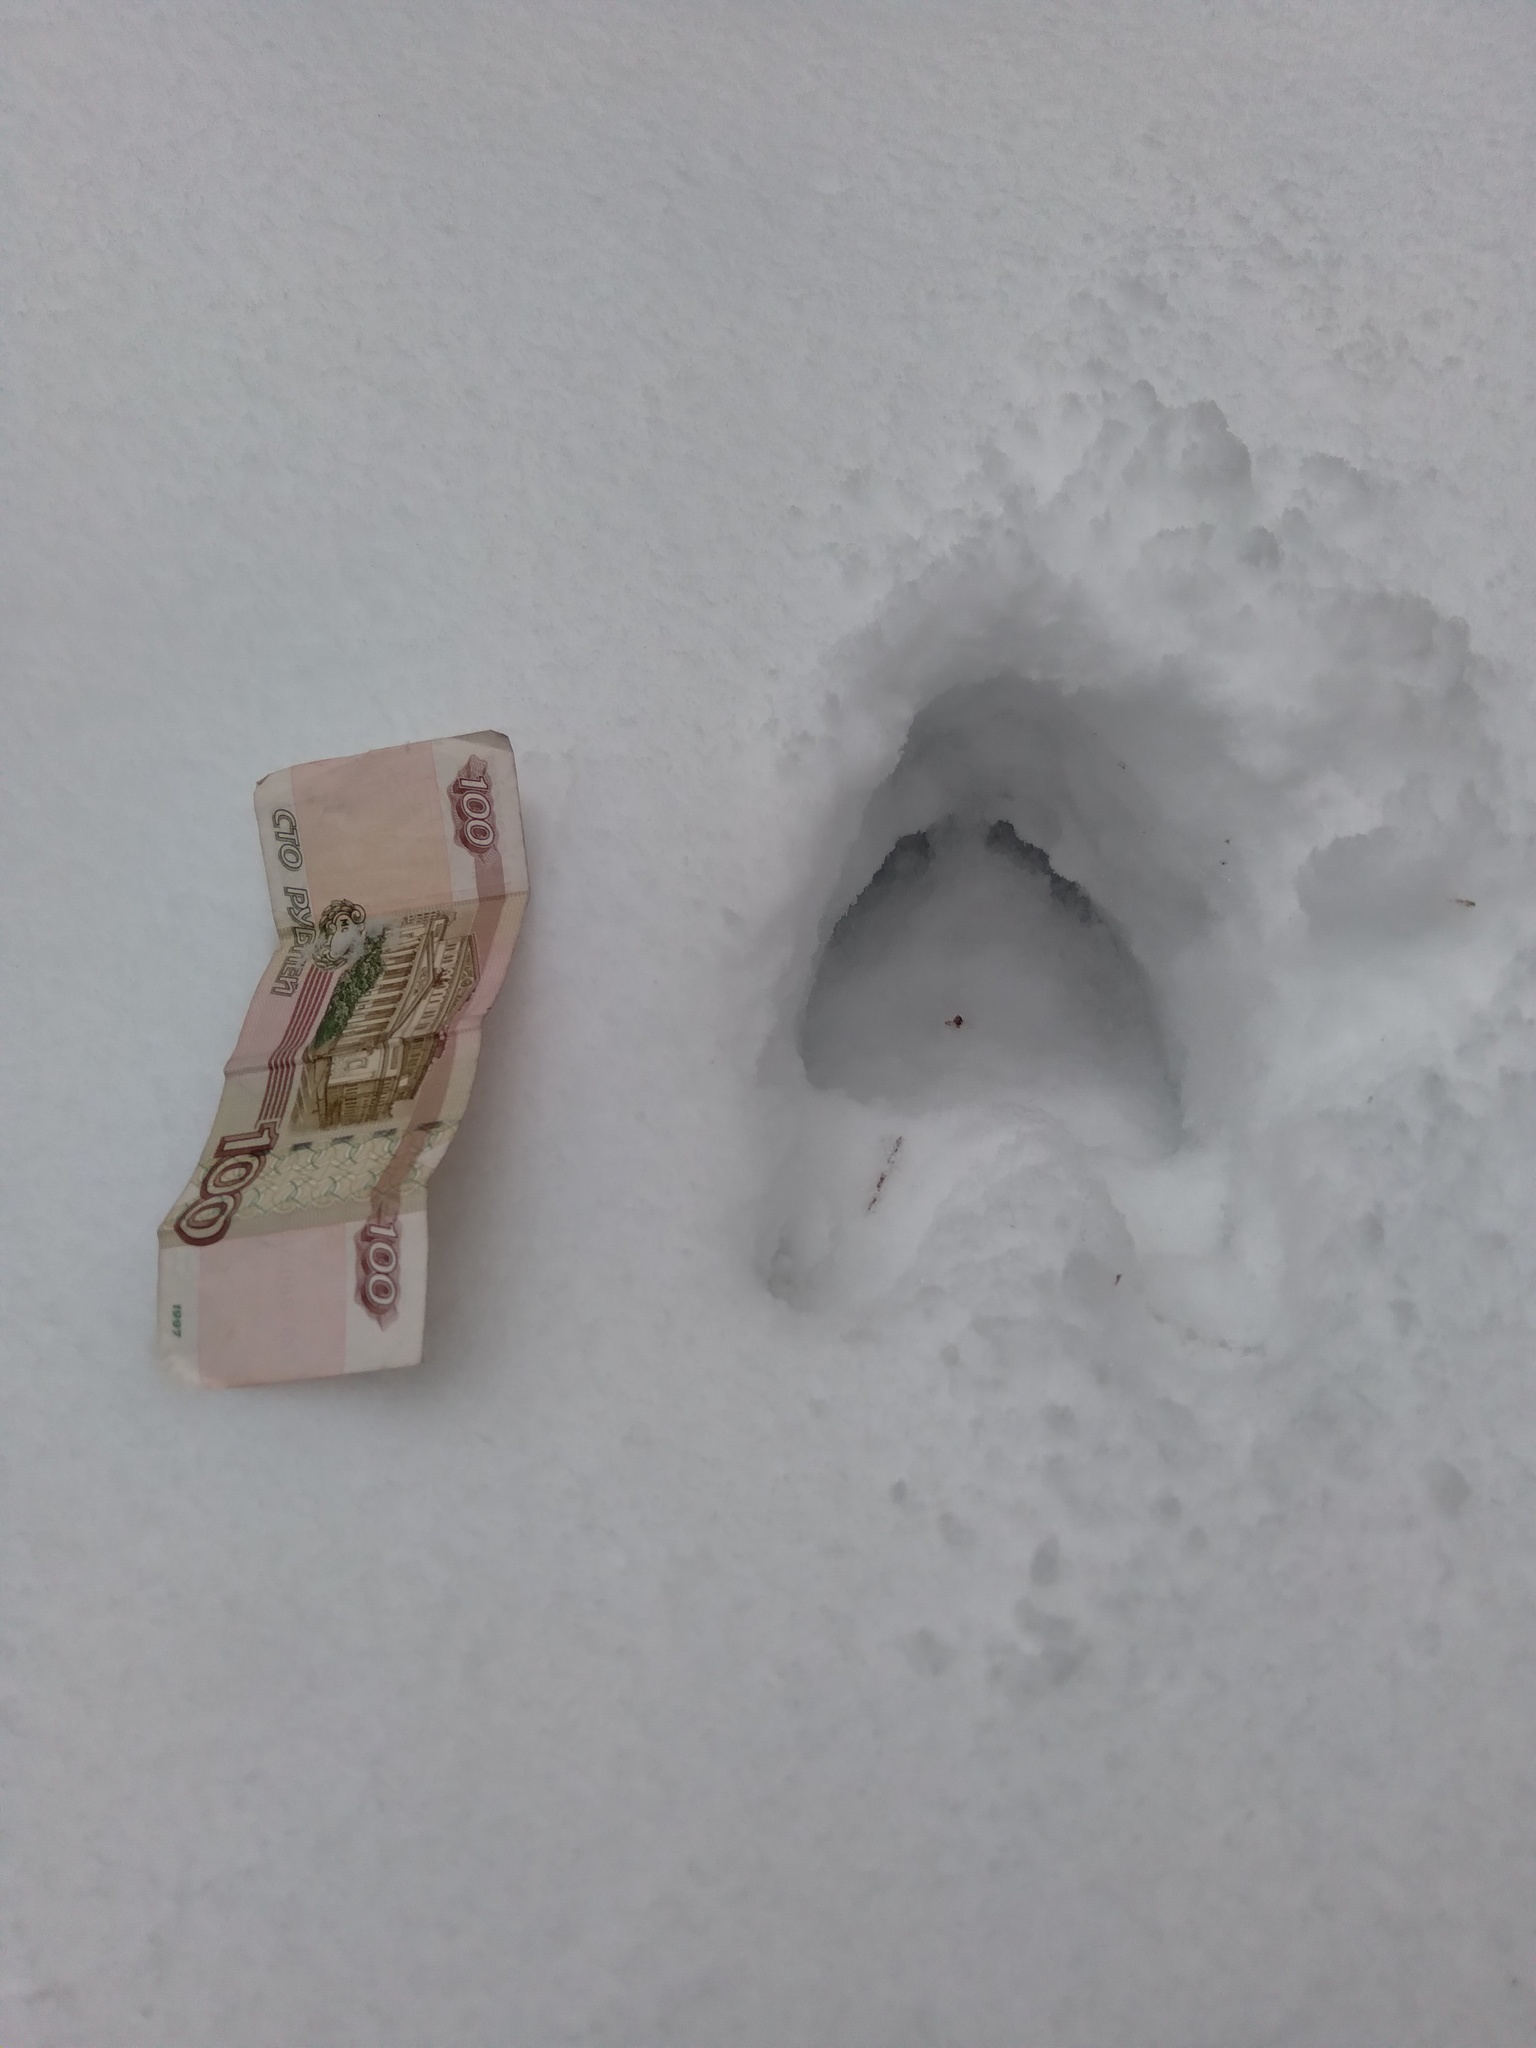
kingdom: Animalia
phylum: Chordata
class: Mammalia
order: Artiodactyla
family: Cervidae
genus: Alces
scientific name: Alces alces
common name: Moose
